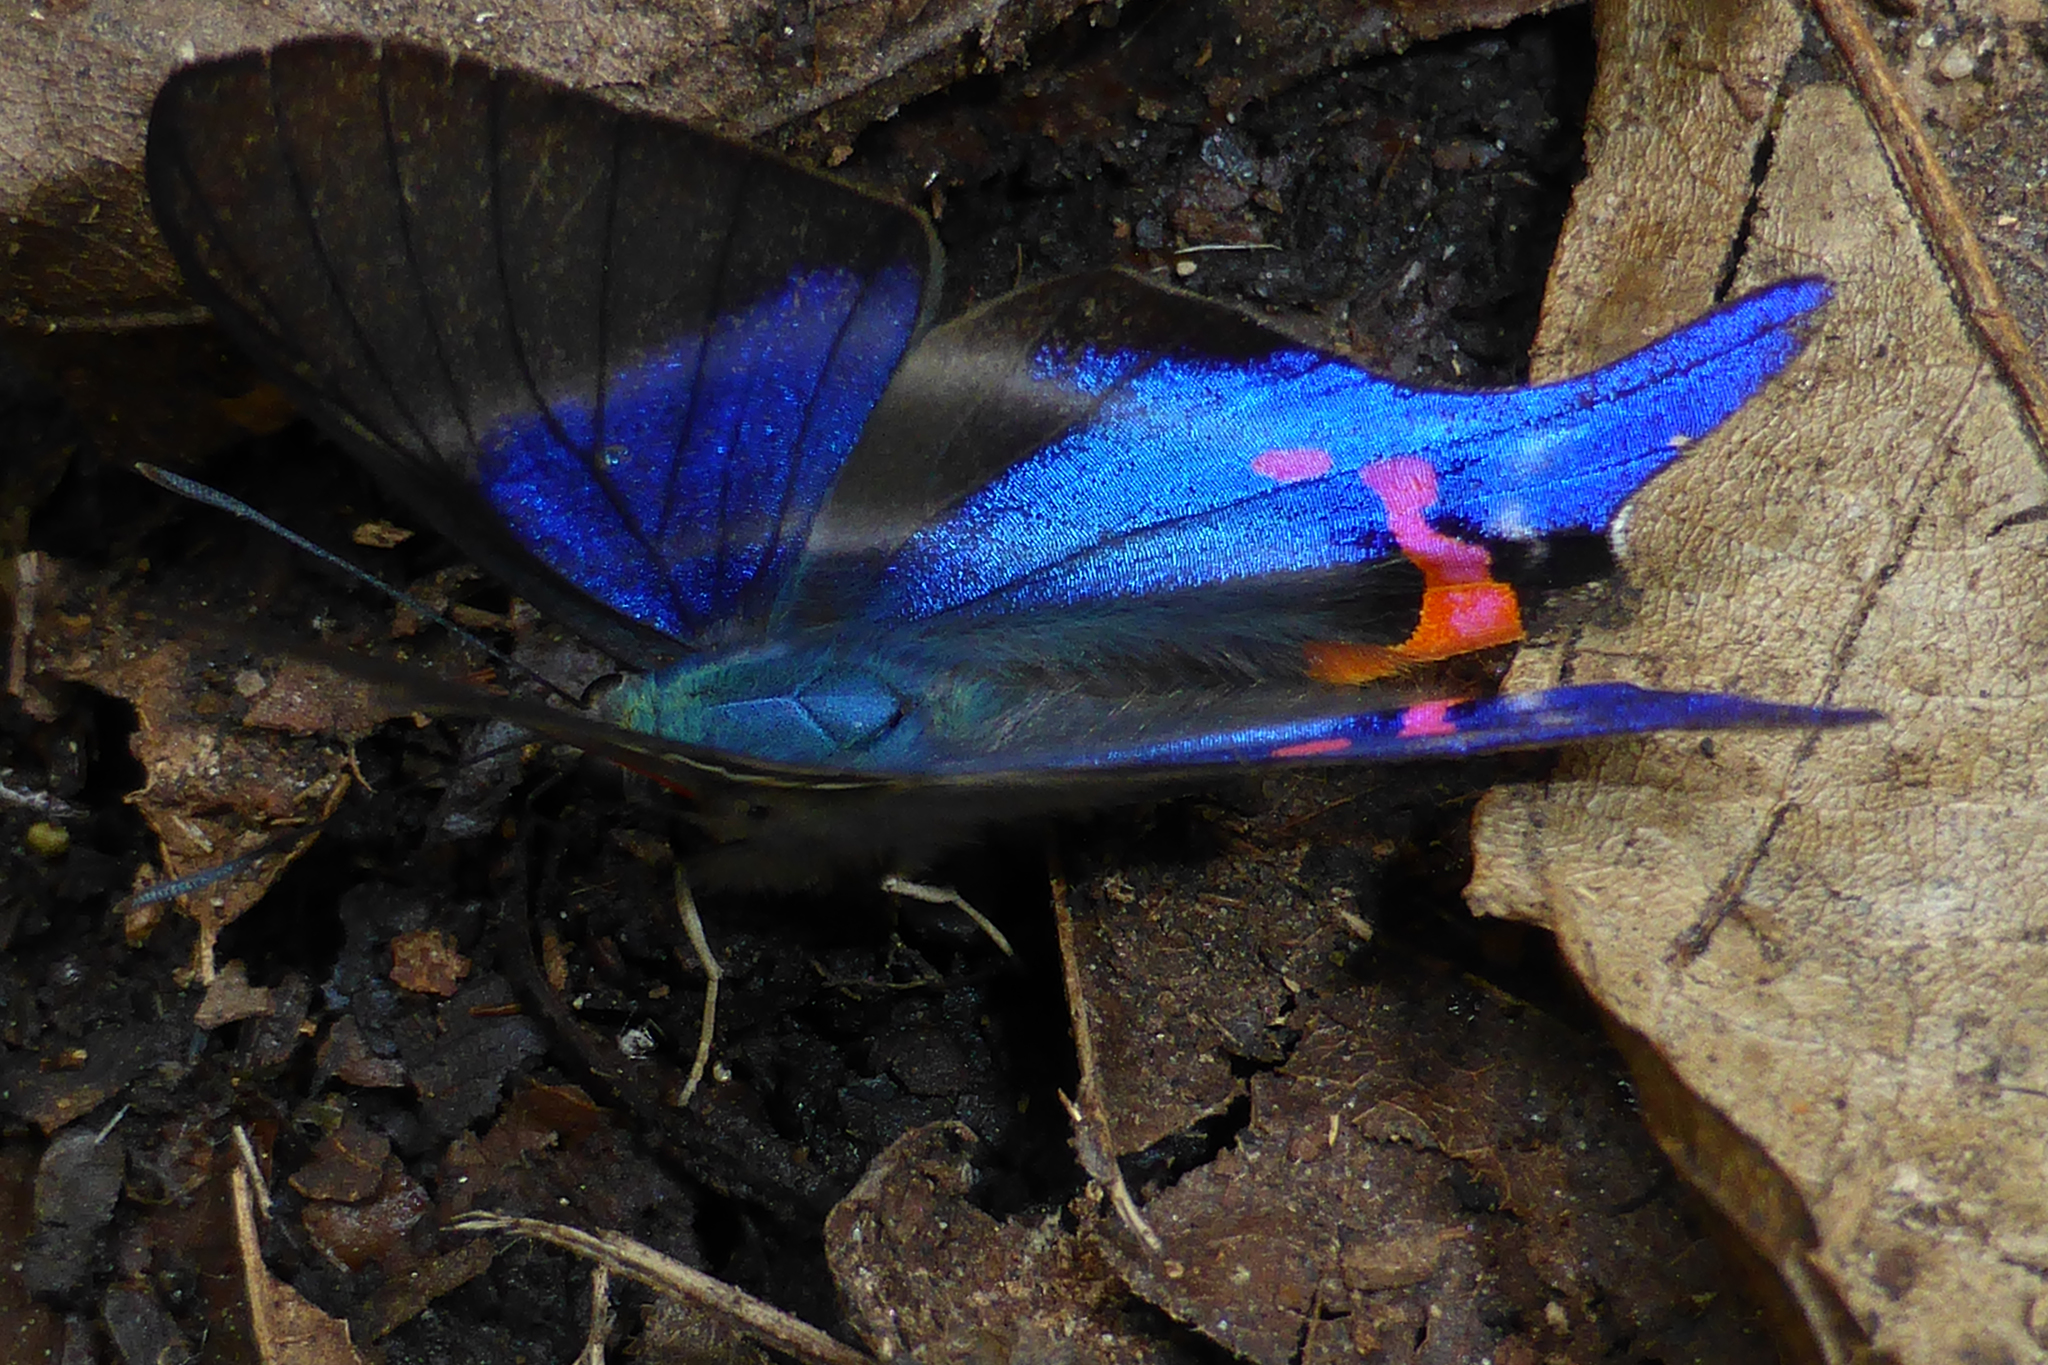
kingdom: Animalia
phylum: Arthropoda
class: Insecta
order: Lepidoptera
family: Riodinidae
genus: Rhetus
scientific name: Rhetus dysonii
